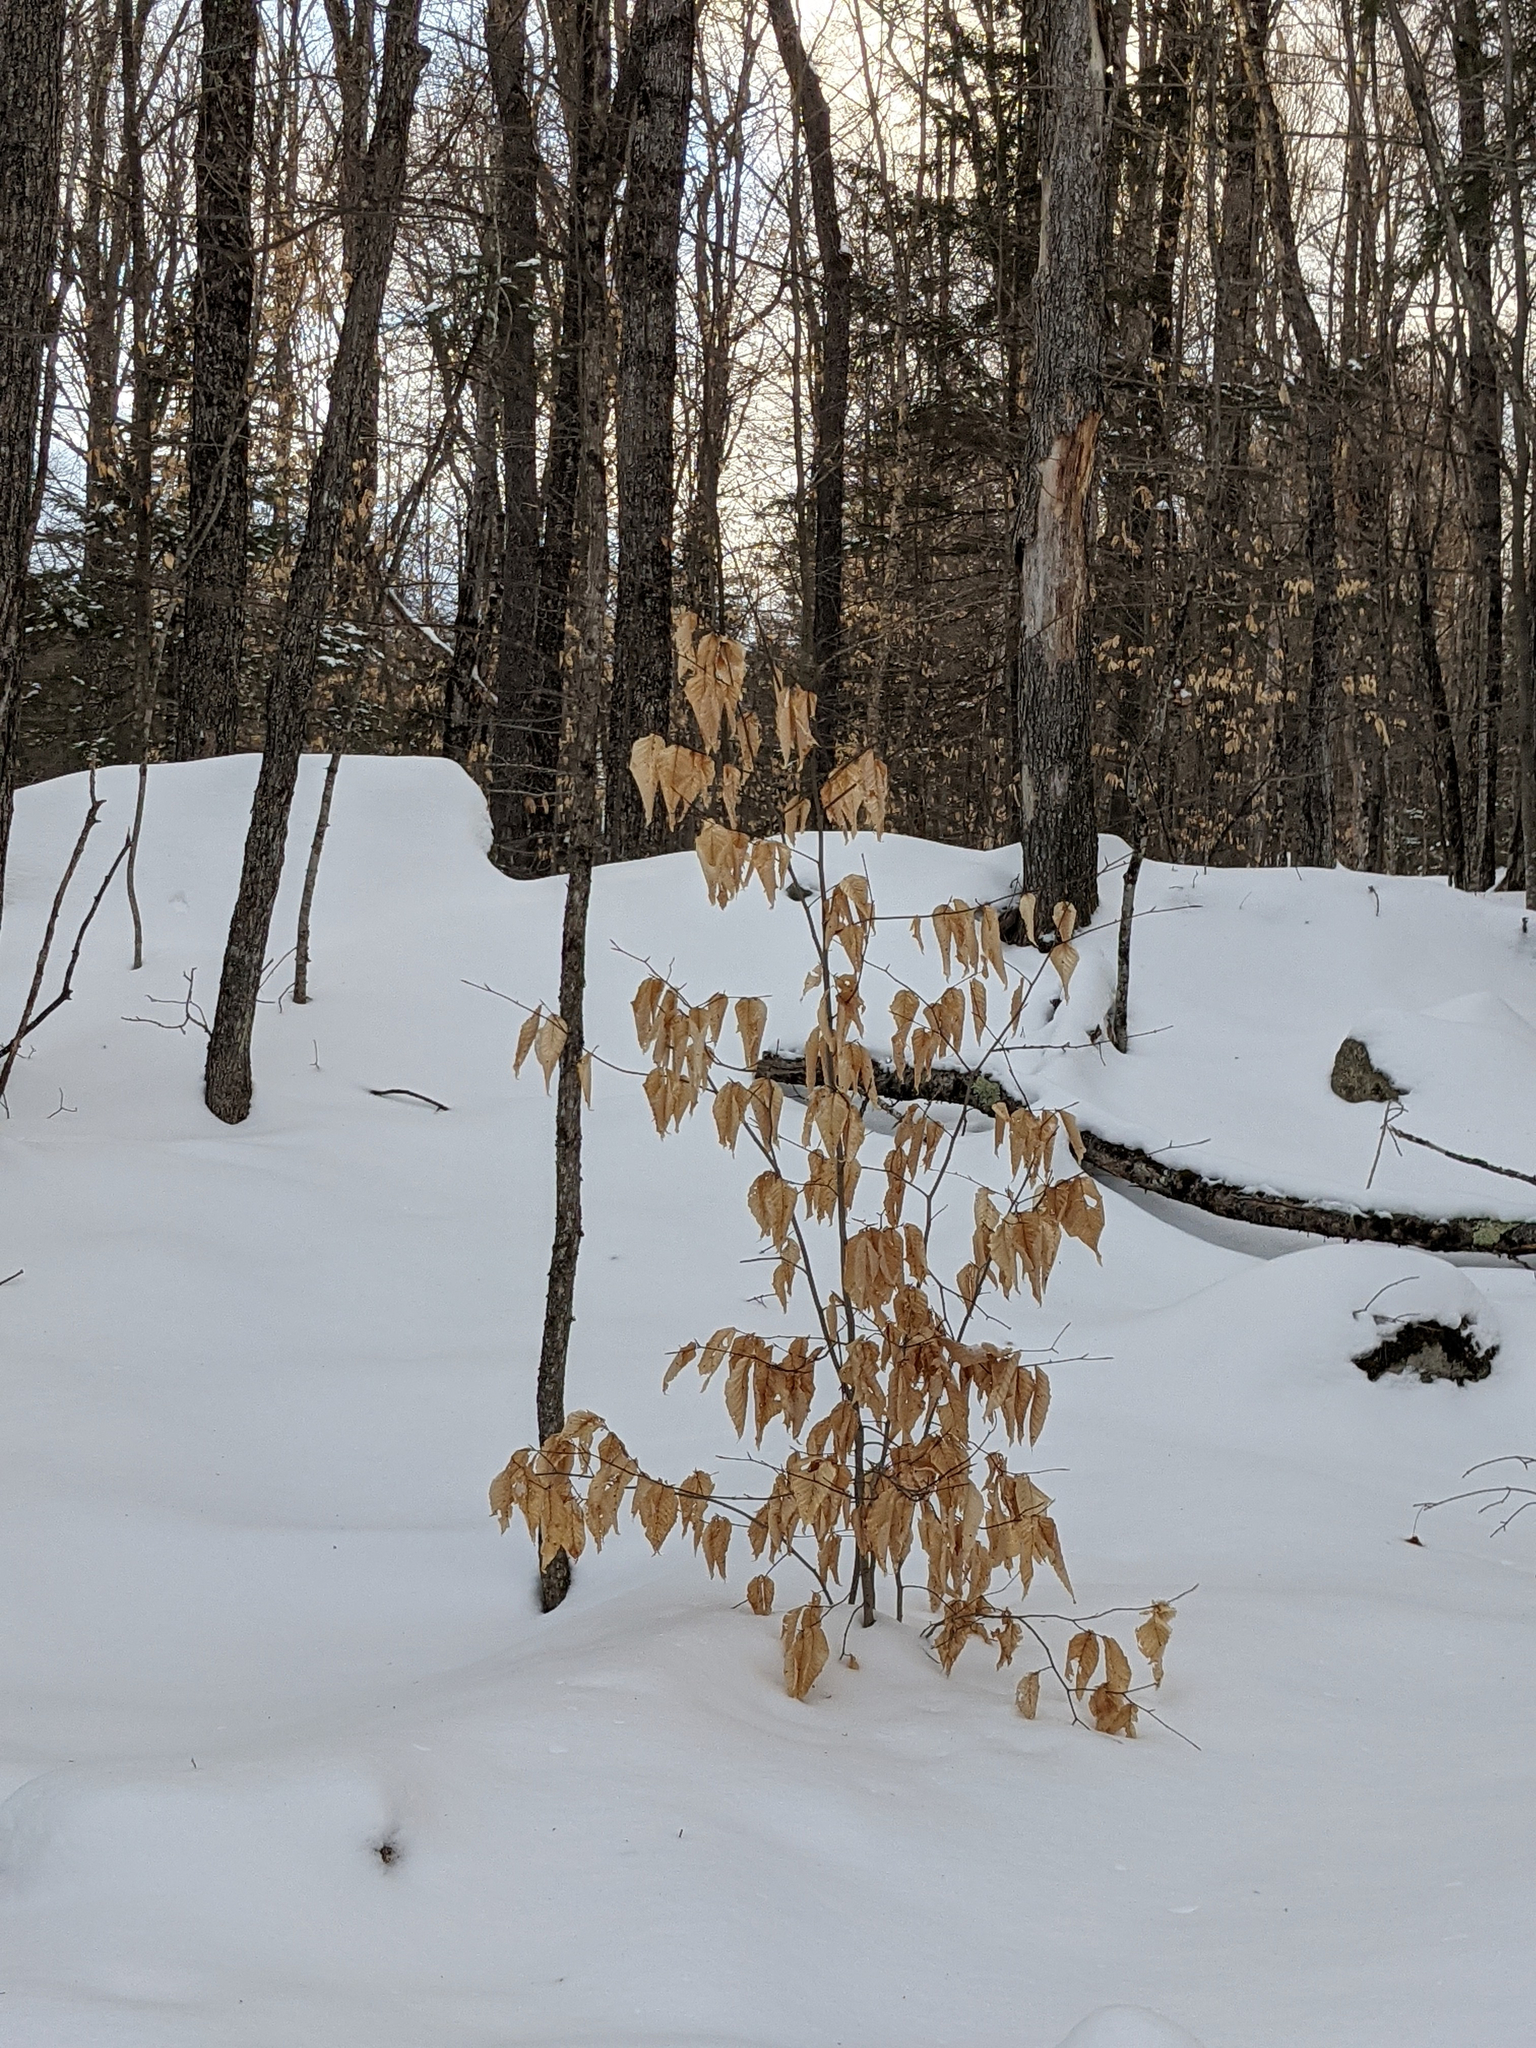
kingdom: Plantae
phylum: Tracheophyta
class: Magnoliopsida
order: Fagales
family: Fagaceae
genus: Fagus
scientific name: Fagus grandifolia
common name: American beech
